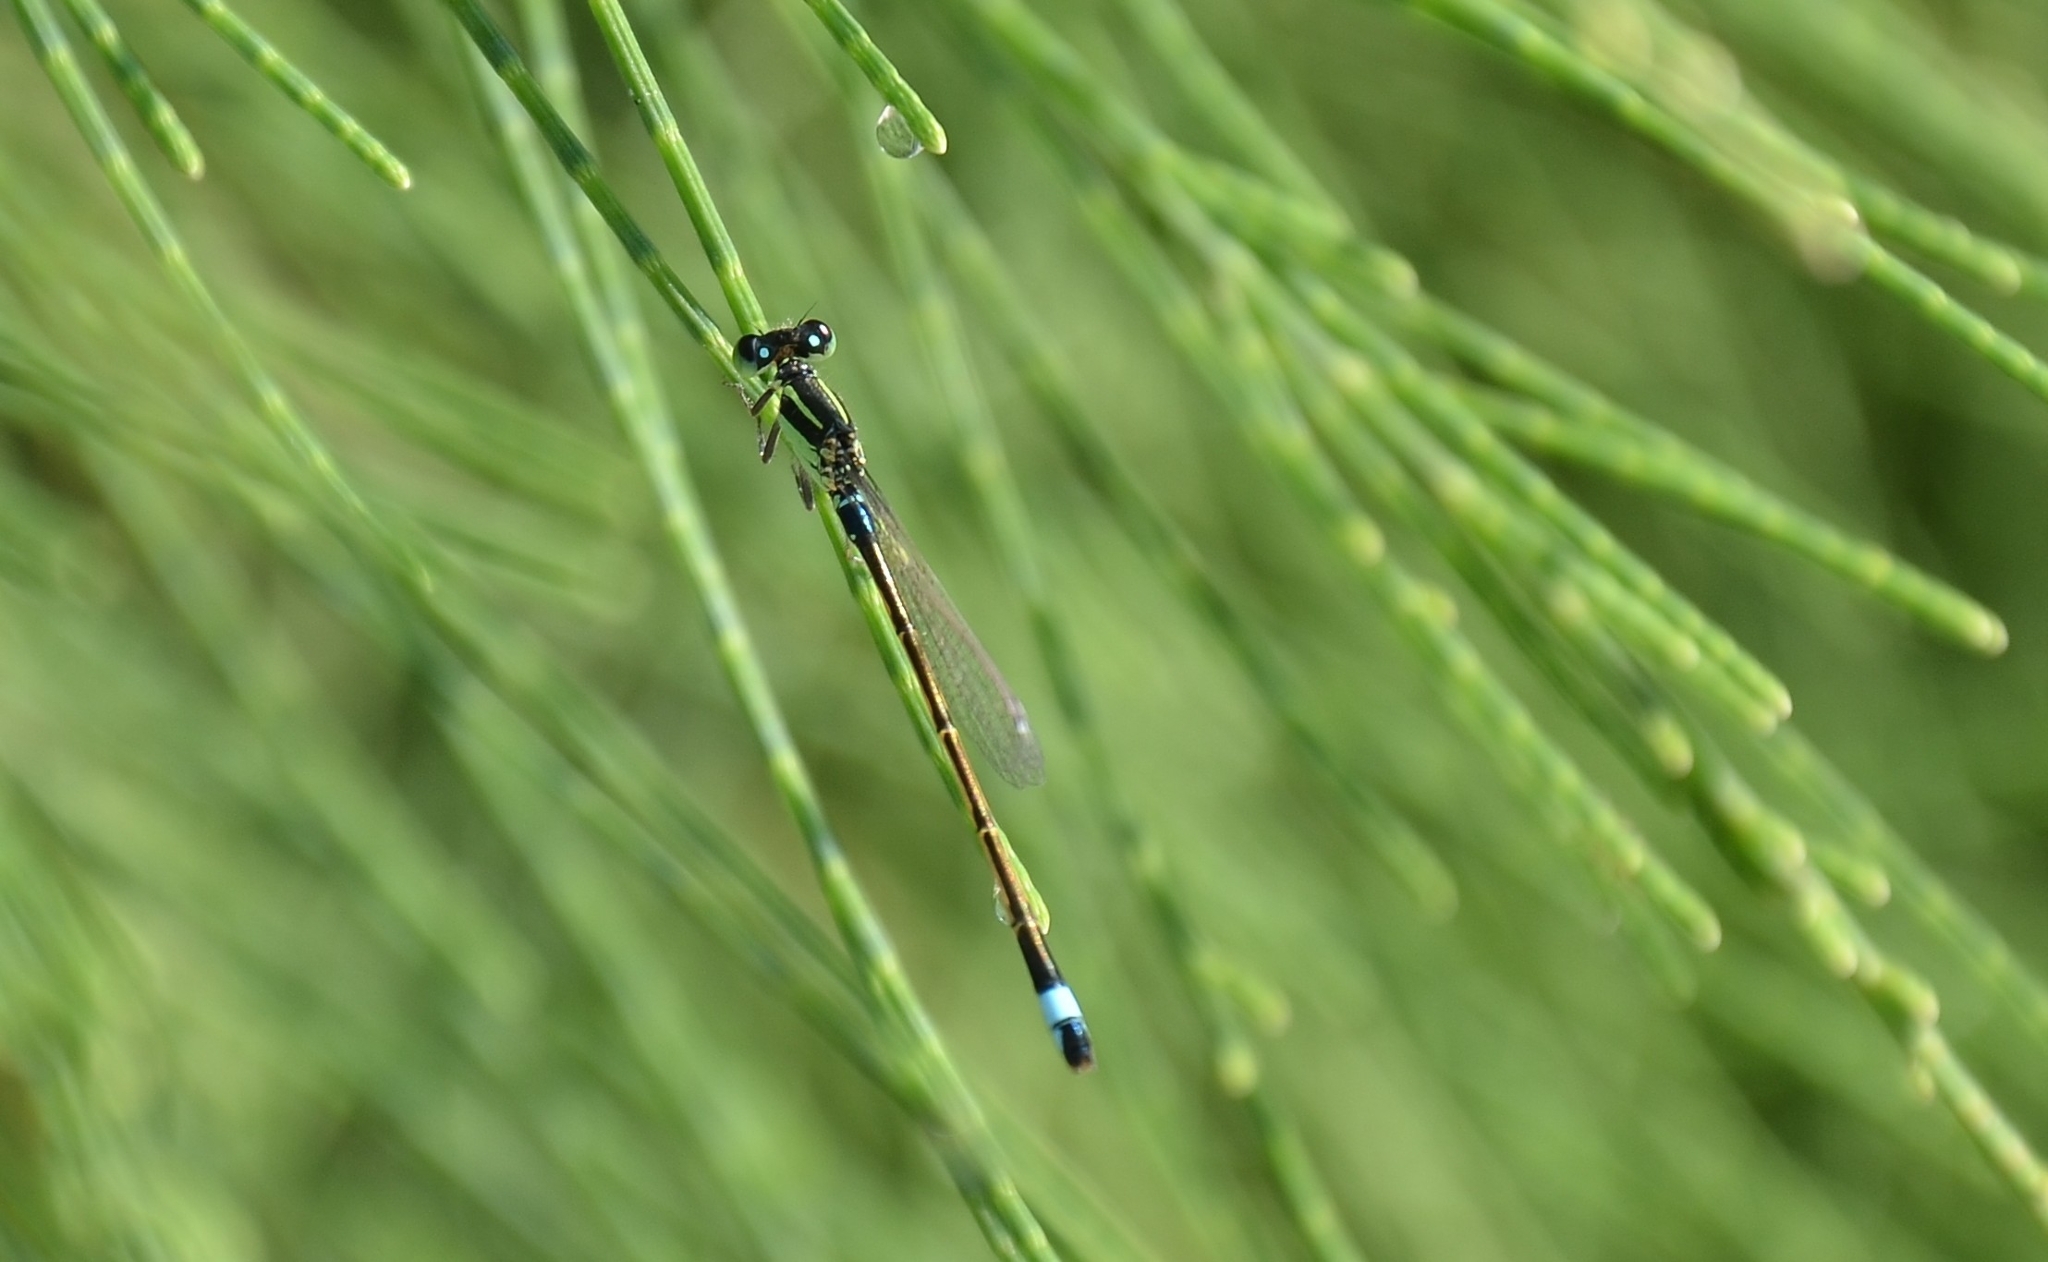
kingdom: Animalia
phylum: Arthropoda
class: Insecta
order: Odonata
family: Coenagrionidae
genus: Ischnura
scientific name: Ischnura senegalensis
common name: Tropical bluetail
